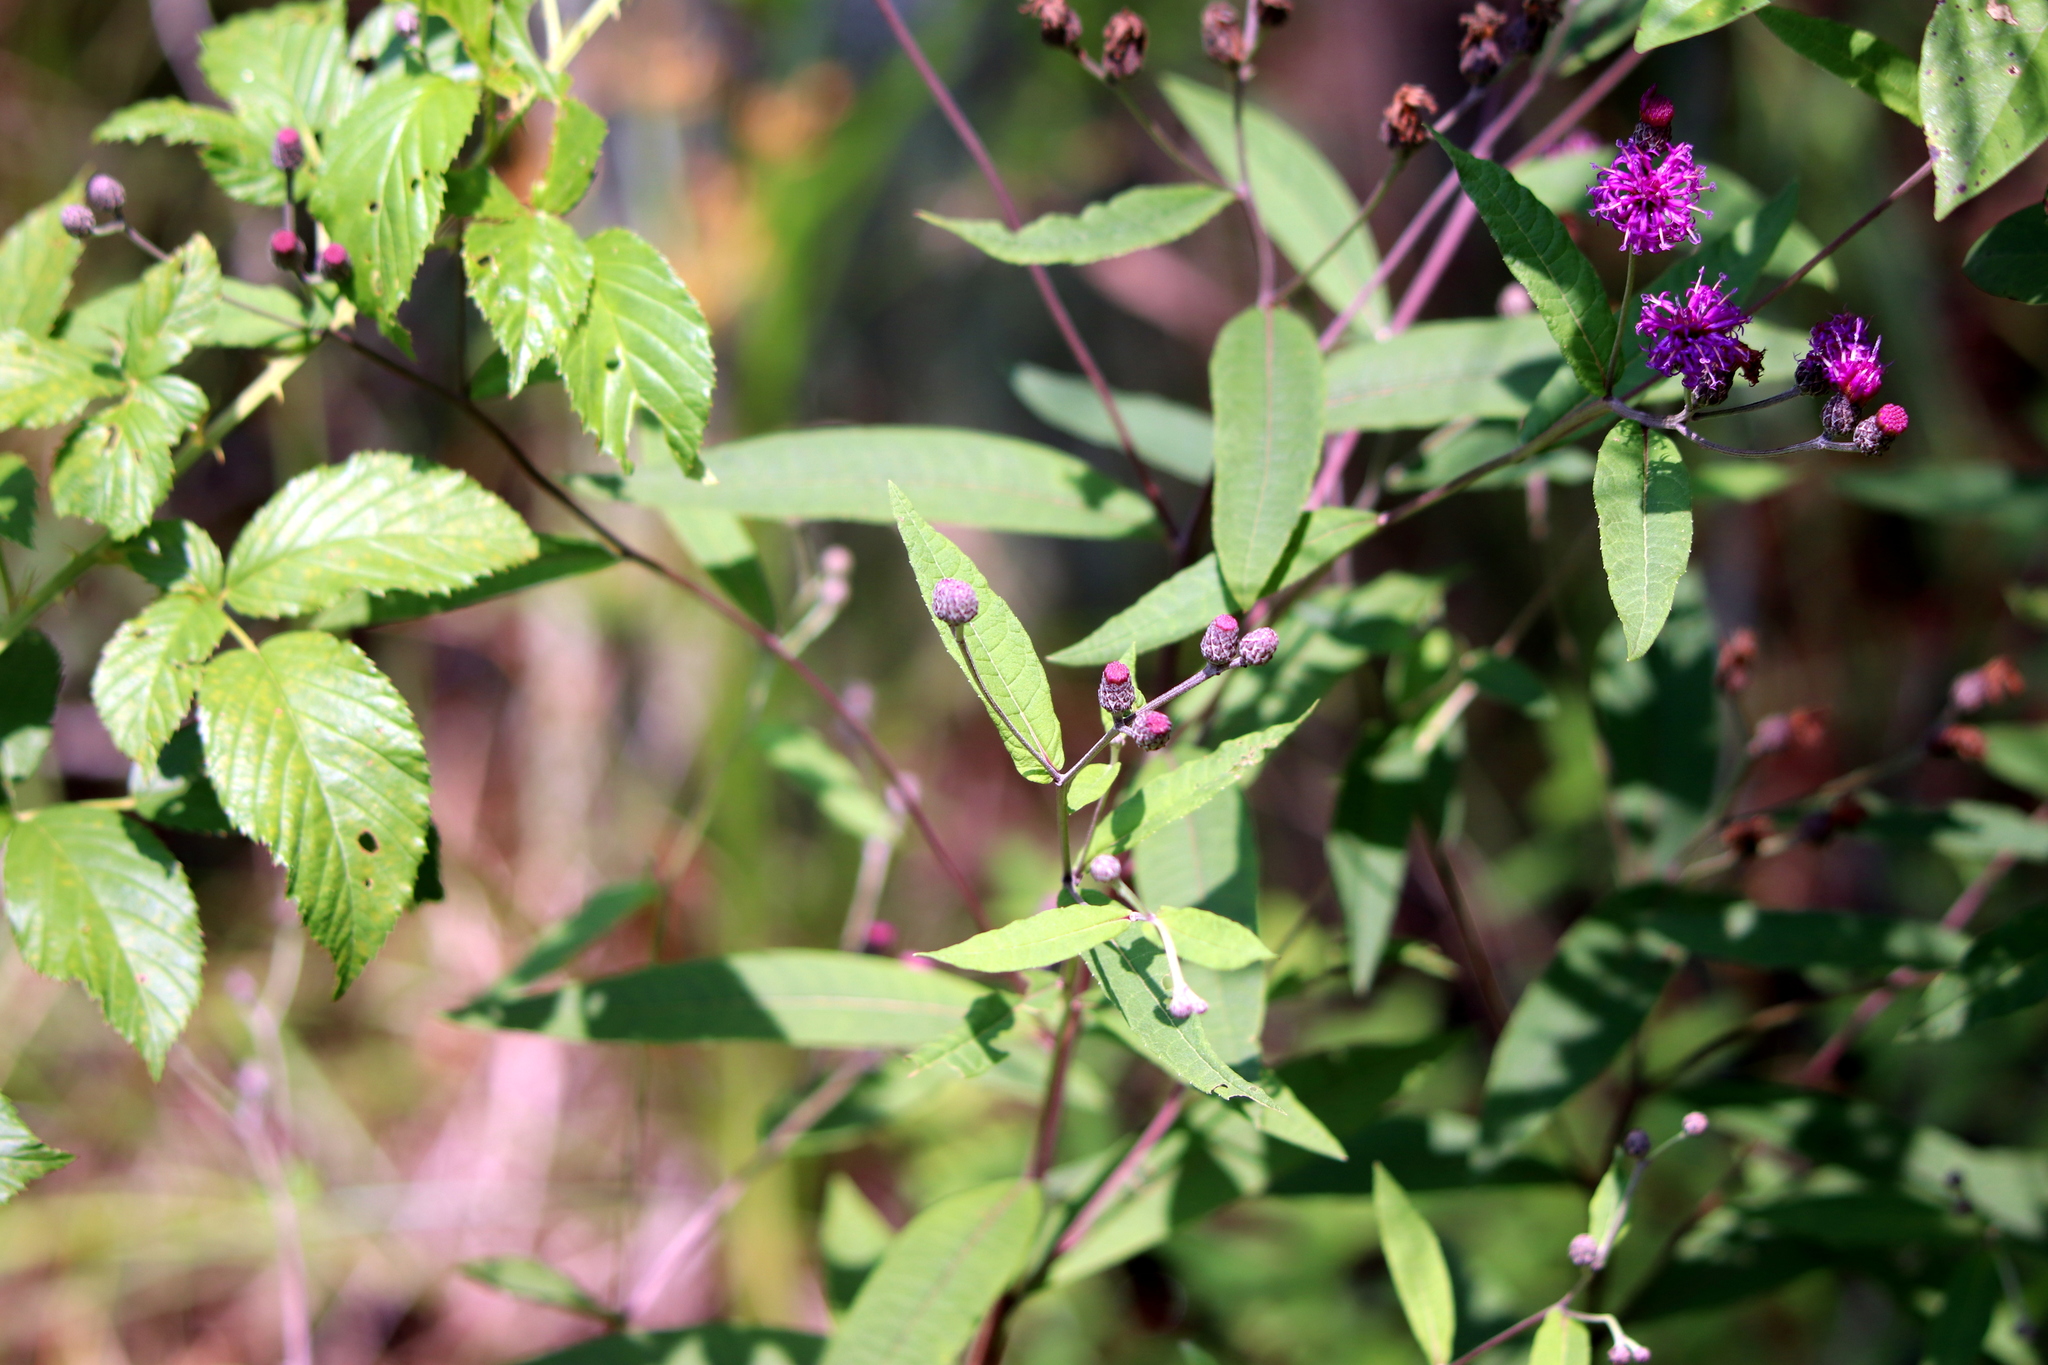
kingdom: Plantae
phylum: Tracheophyta
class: Magnoliopsida
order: Asterales
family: Asteraceae
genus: Vernonia
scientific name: Vernonia gigantea
